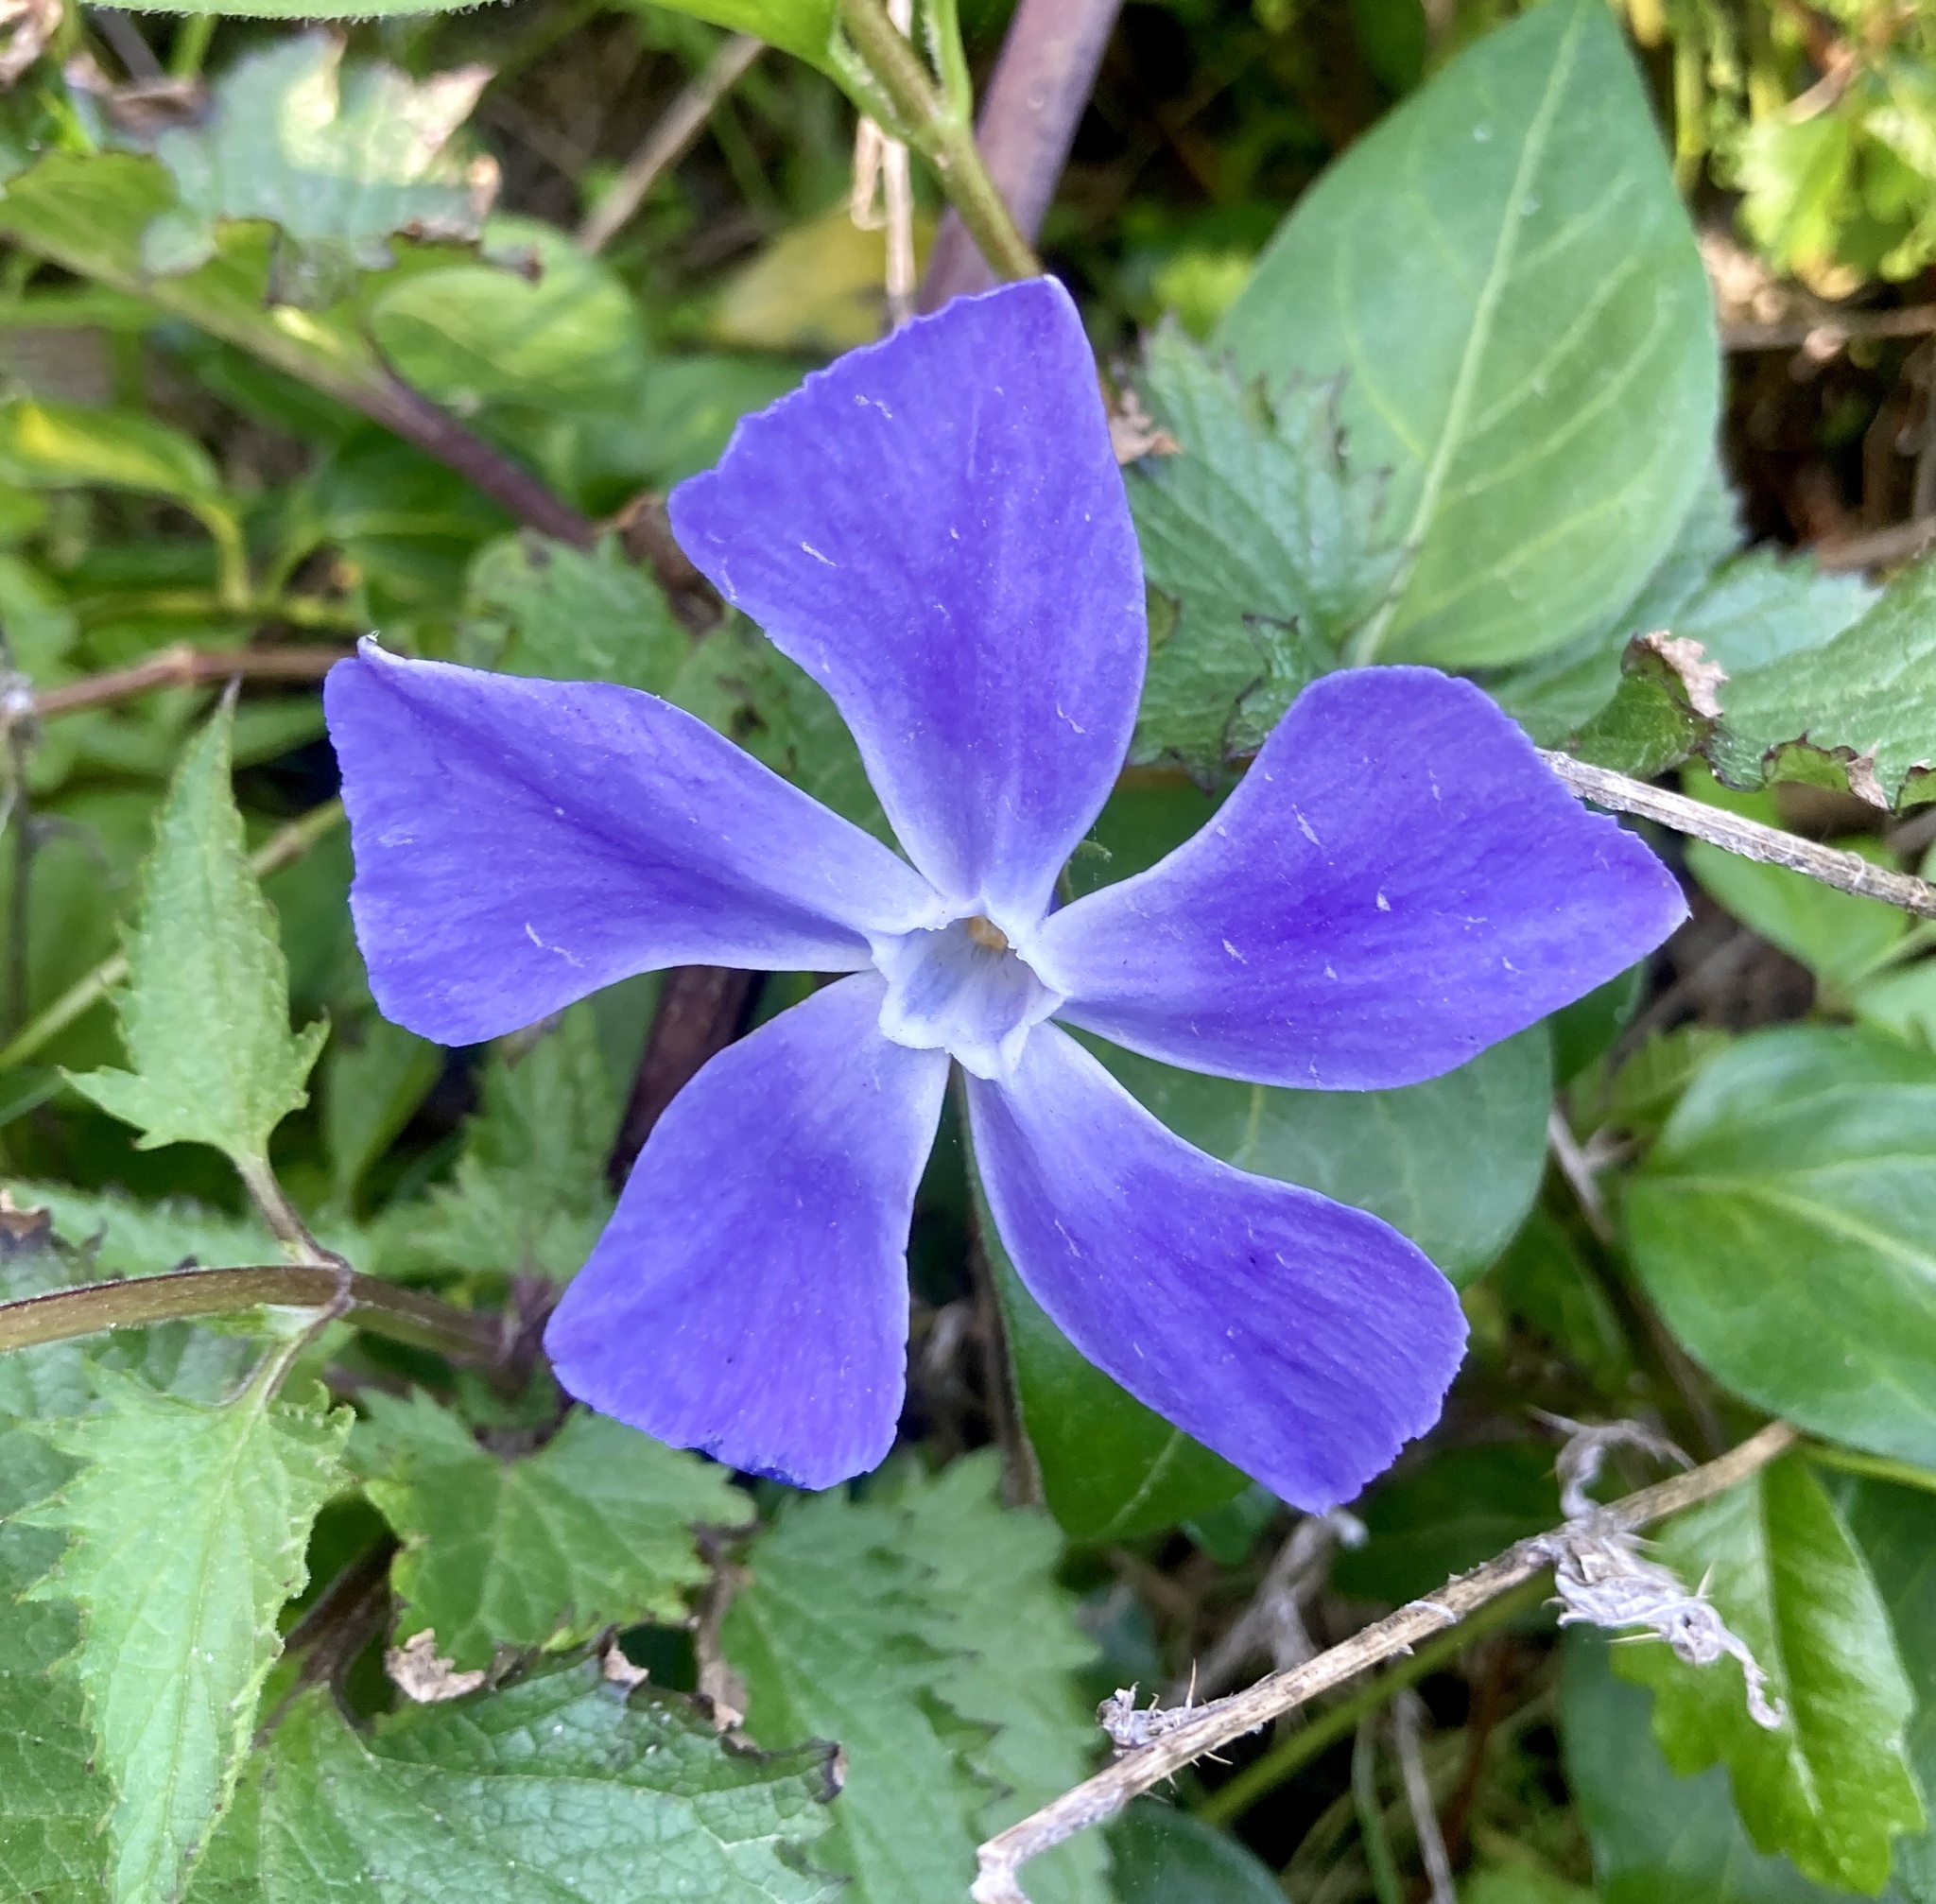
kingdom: Plantae
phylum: Tracheophyta
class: Magnoliopsida
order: Gentianales
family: Apocynaceae
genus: Vinca
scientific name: Vinca major
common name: Greater periwinkle
